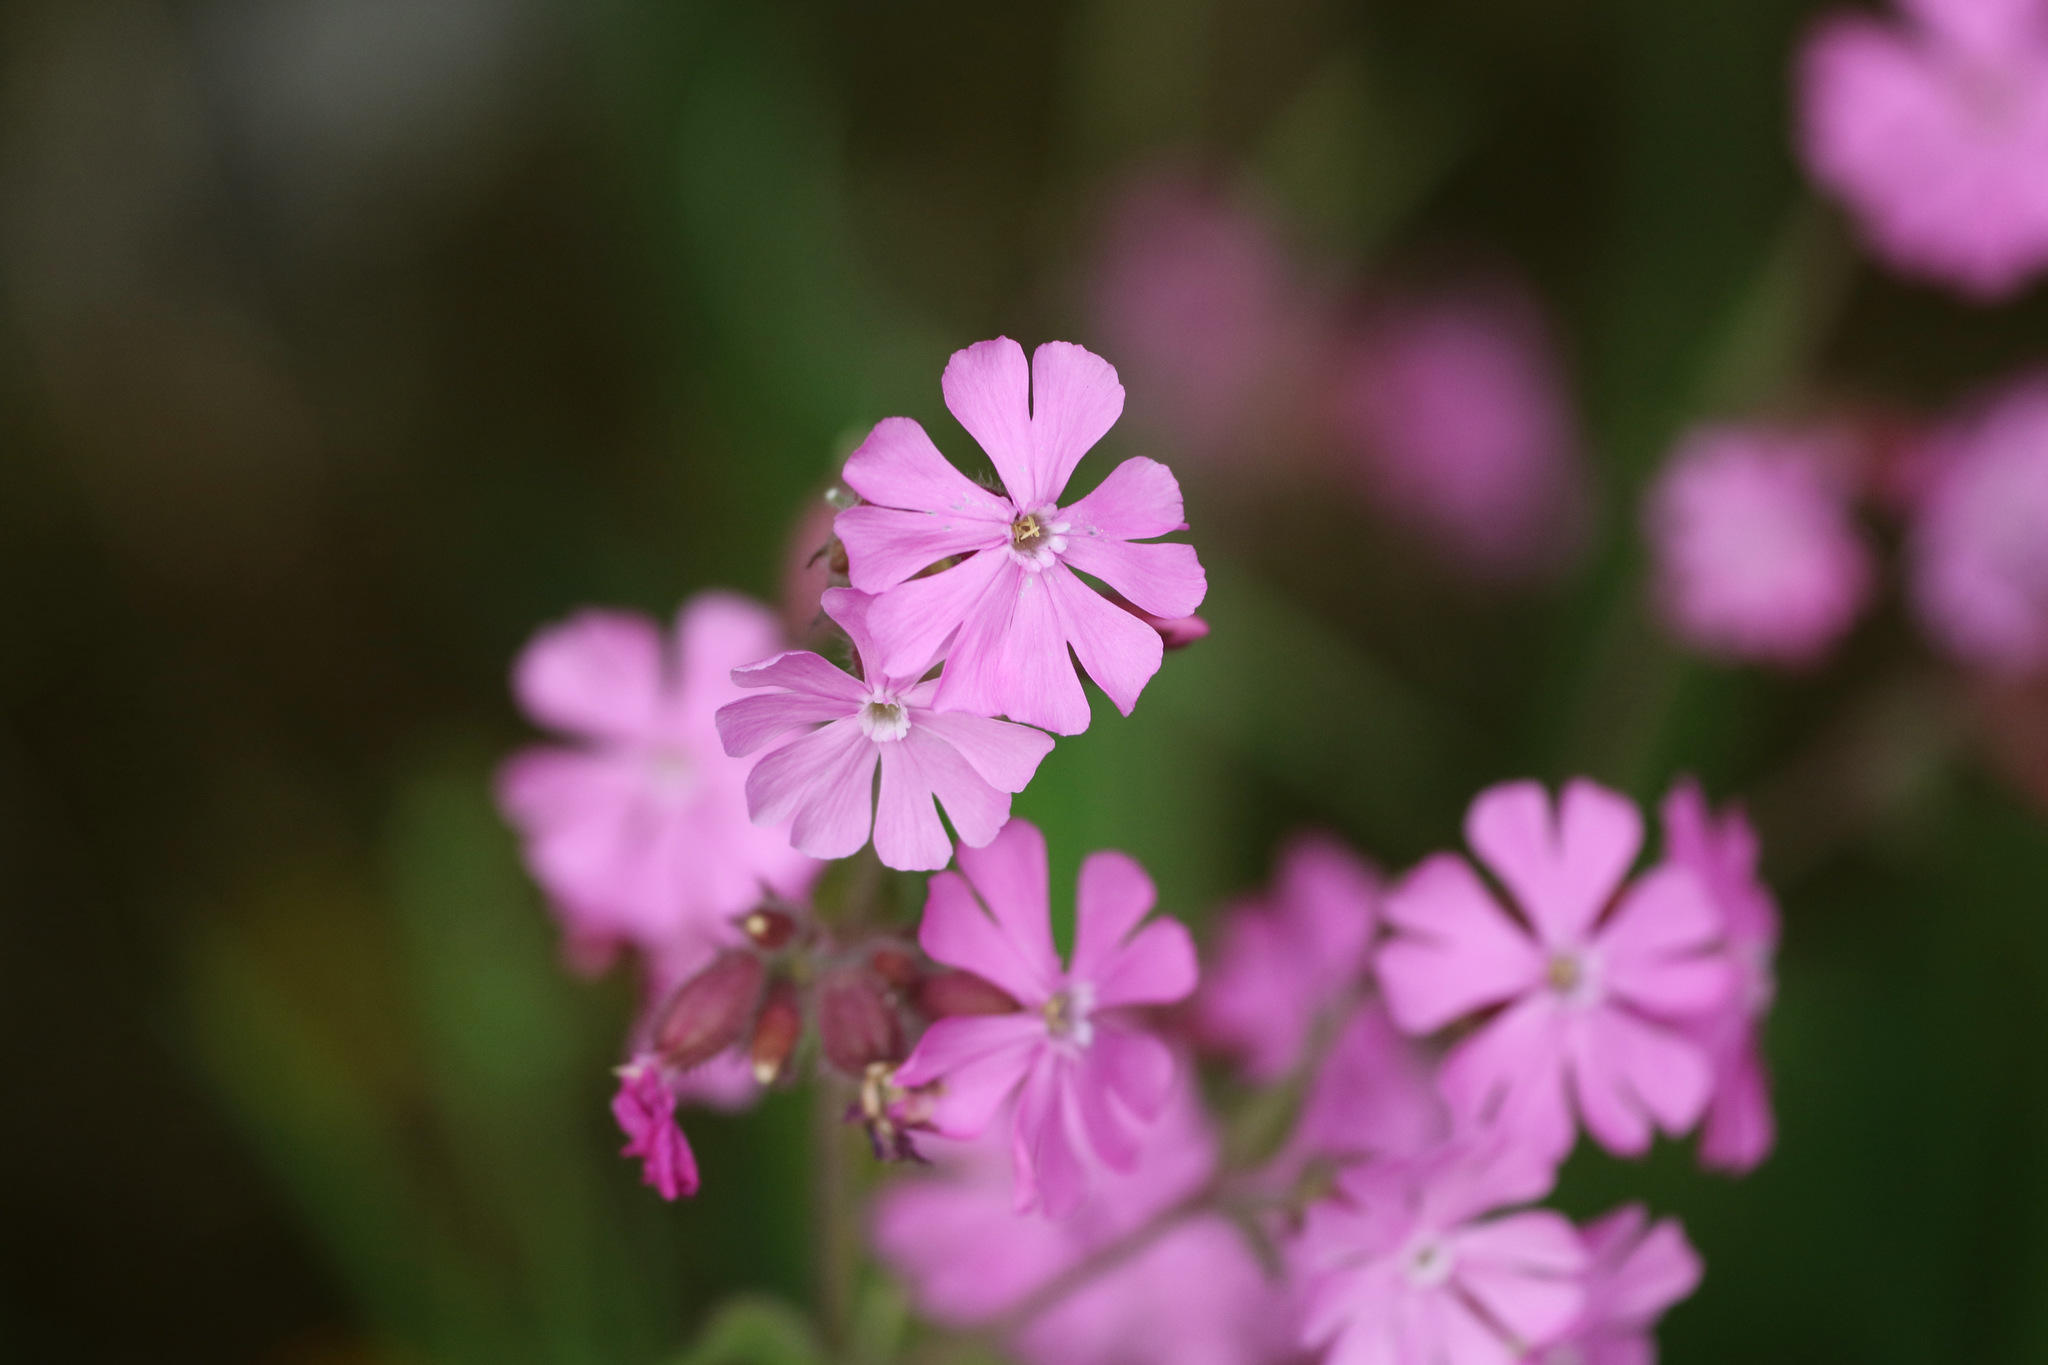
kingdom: Plantae
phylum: Tracheophyta
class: Magnoliopsida
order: Caryophyllales
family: Caryophyllaceae
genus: Silene
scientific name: Silene dioica
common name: Red campion
